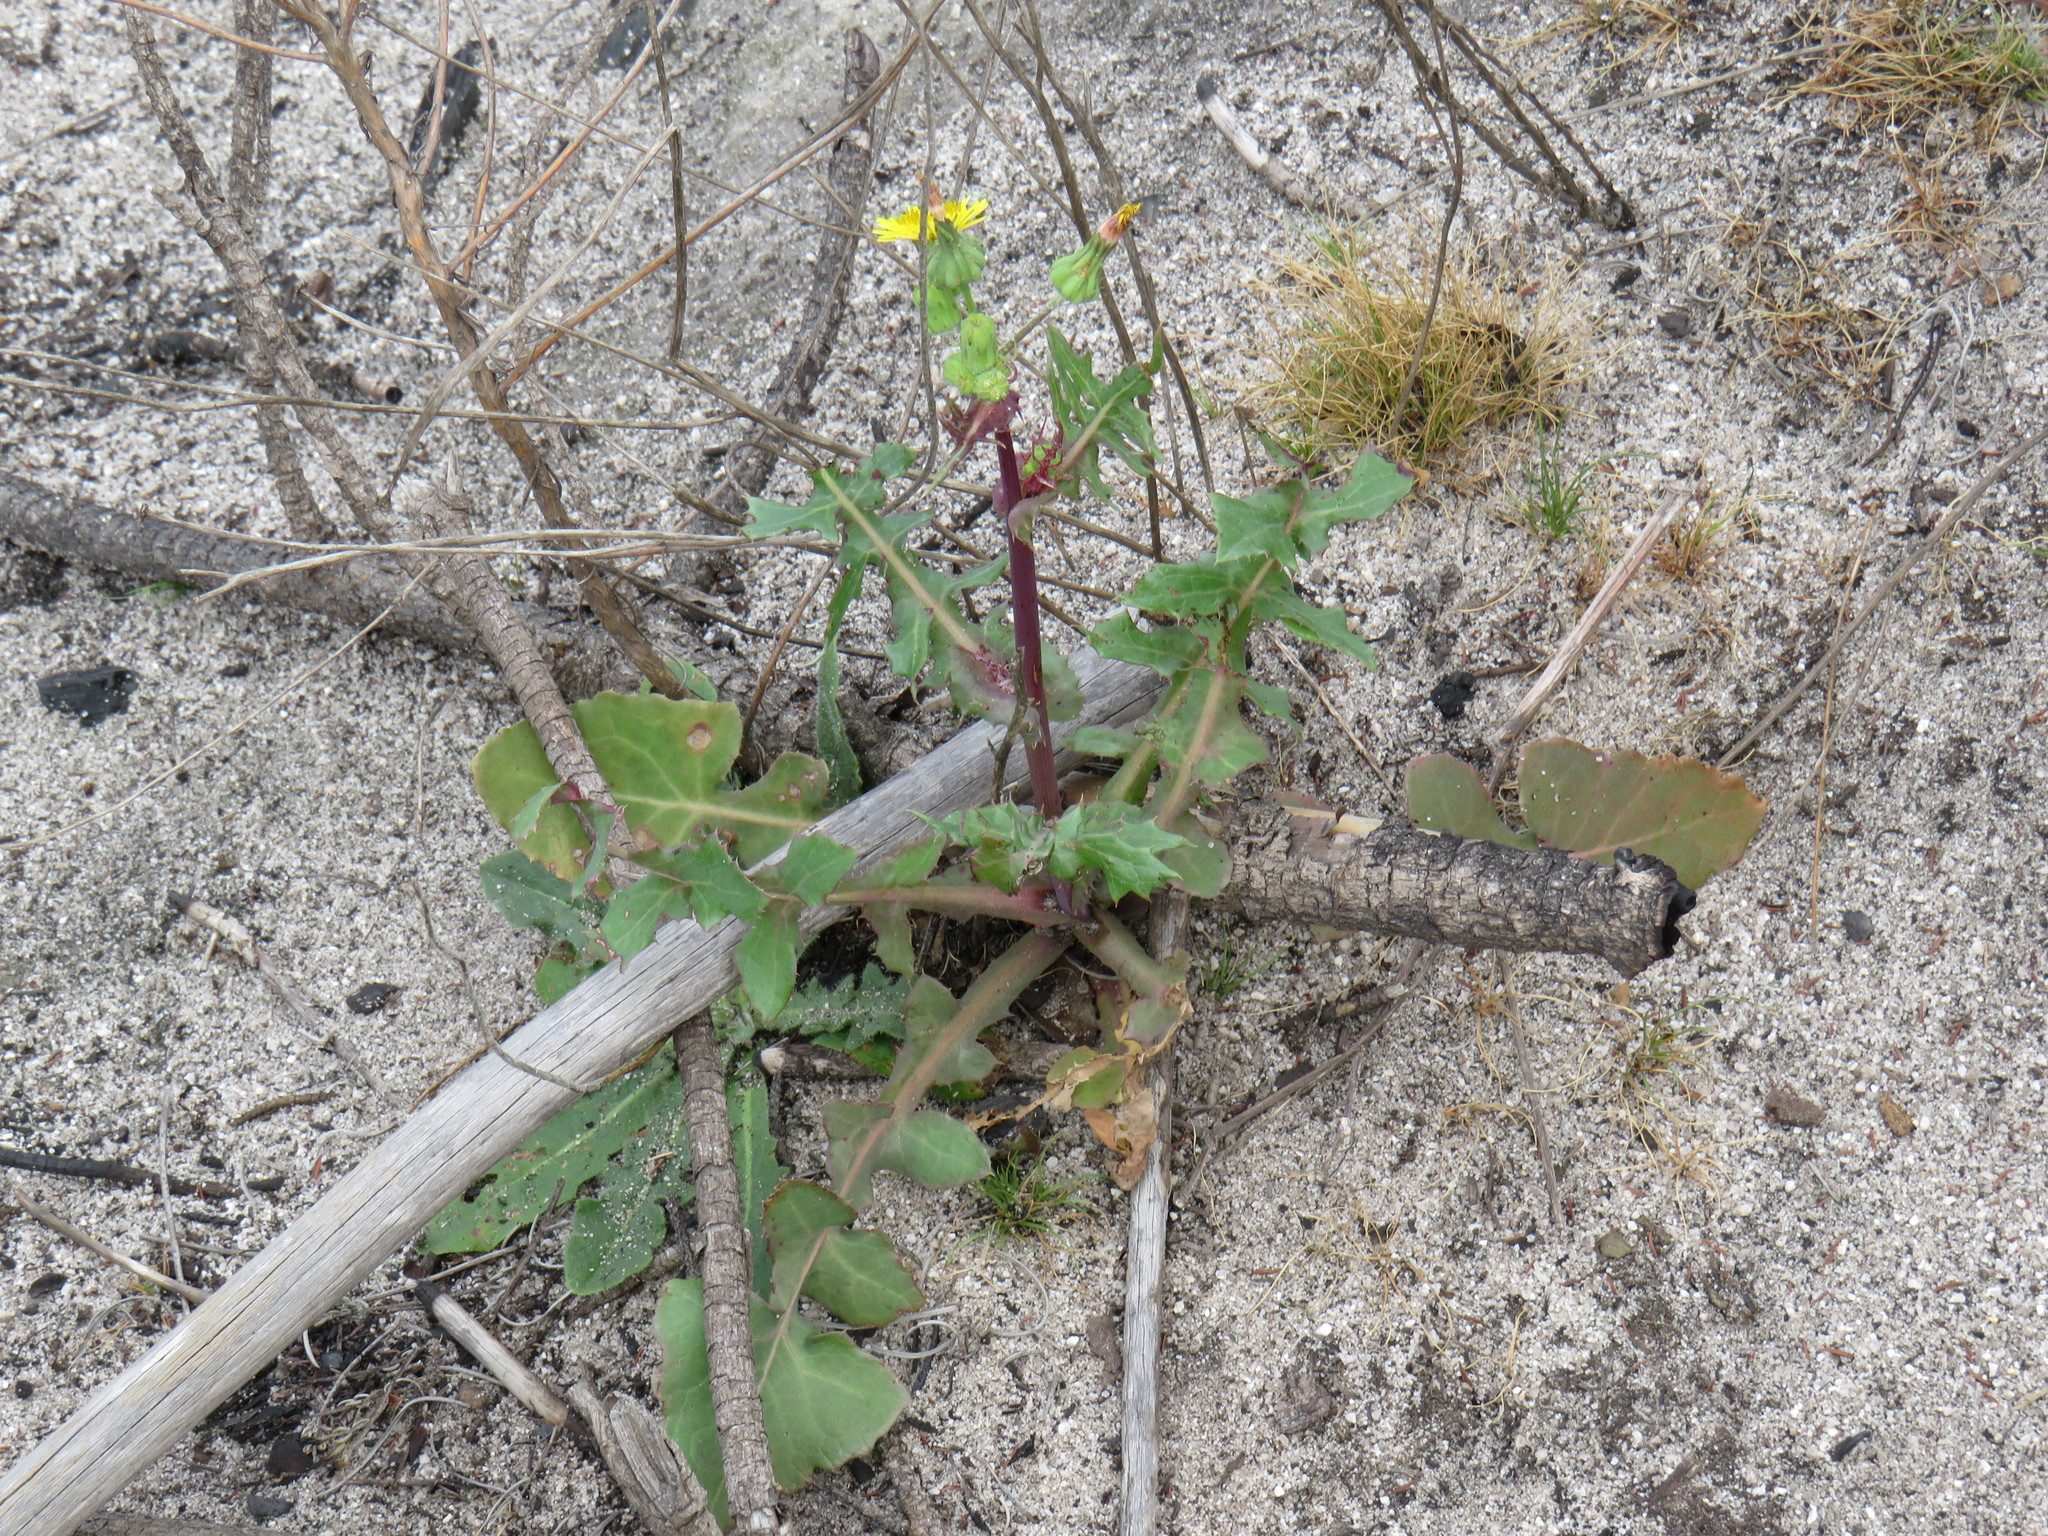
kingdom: Plantae
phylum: Tracheophyta
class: Magnoliopsida
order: Asterales
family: Asteraceae
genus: Sonchus
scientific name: Sonchus oleraceus
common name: Common sowthistle
